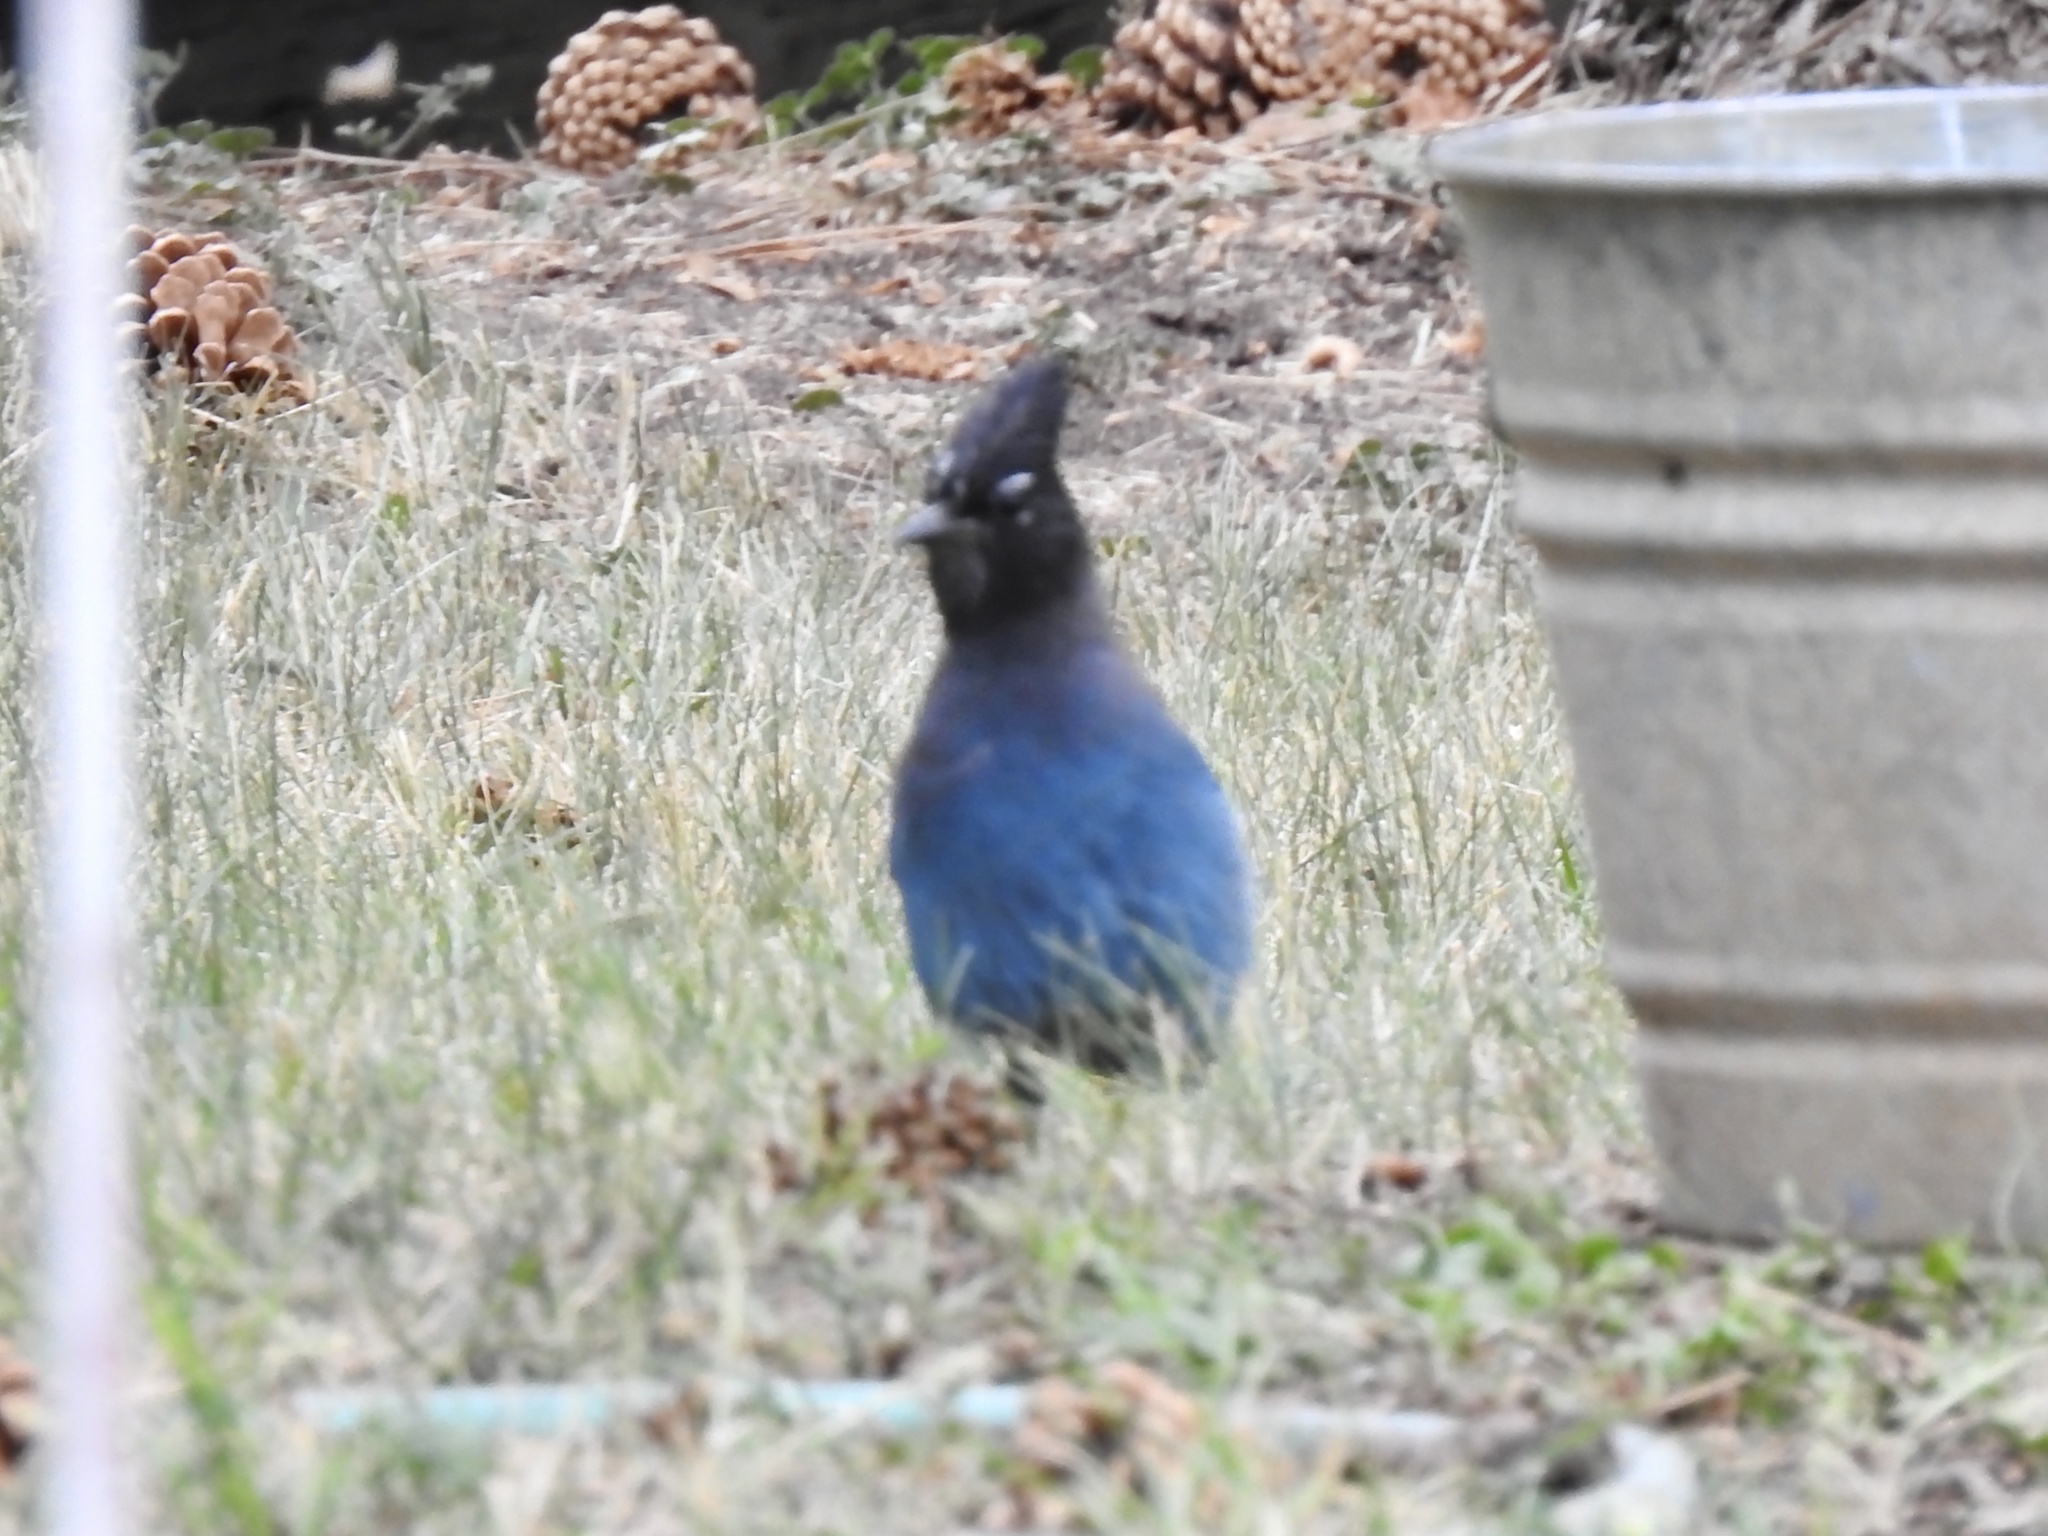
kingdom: Animalia
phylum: Chordata
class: Aves
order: Passeriformes
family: Corvidae
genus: Cyanocitta
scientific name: Cyanocitta stelleri
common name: Steller's jay
